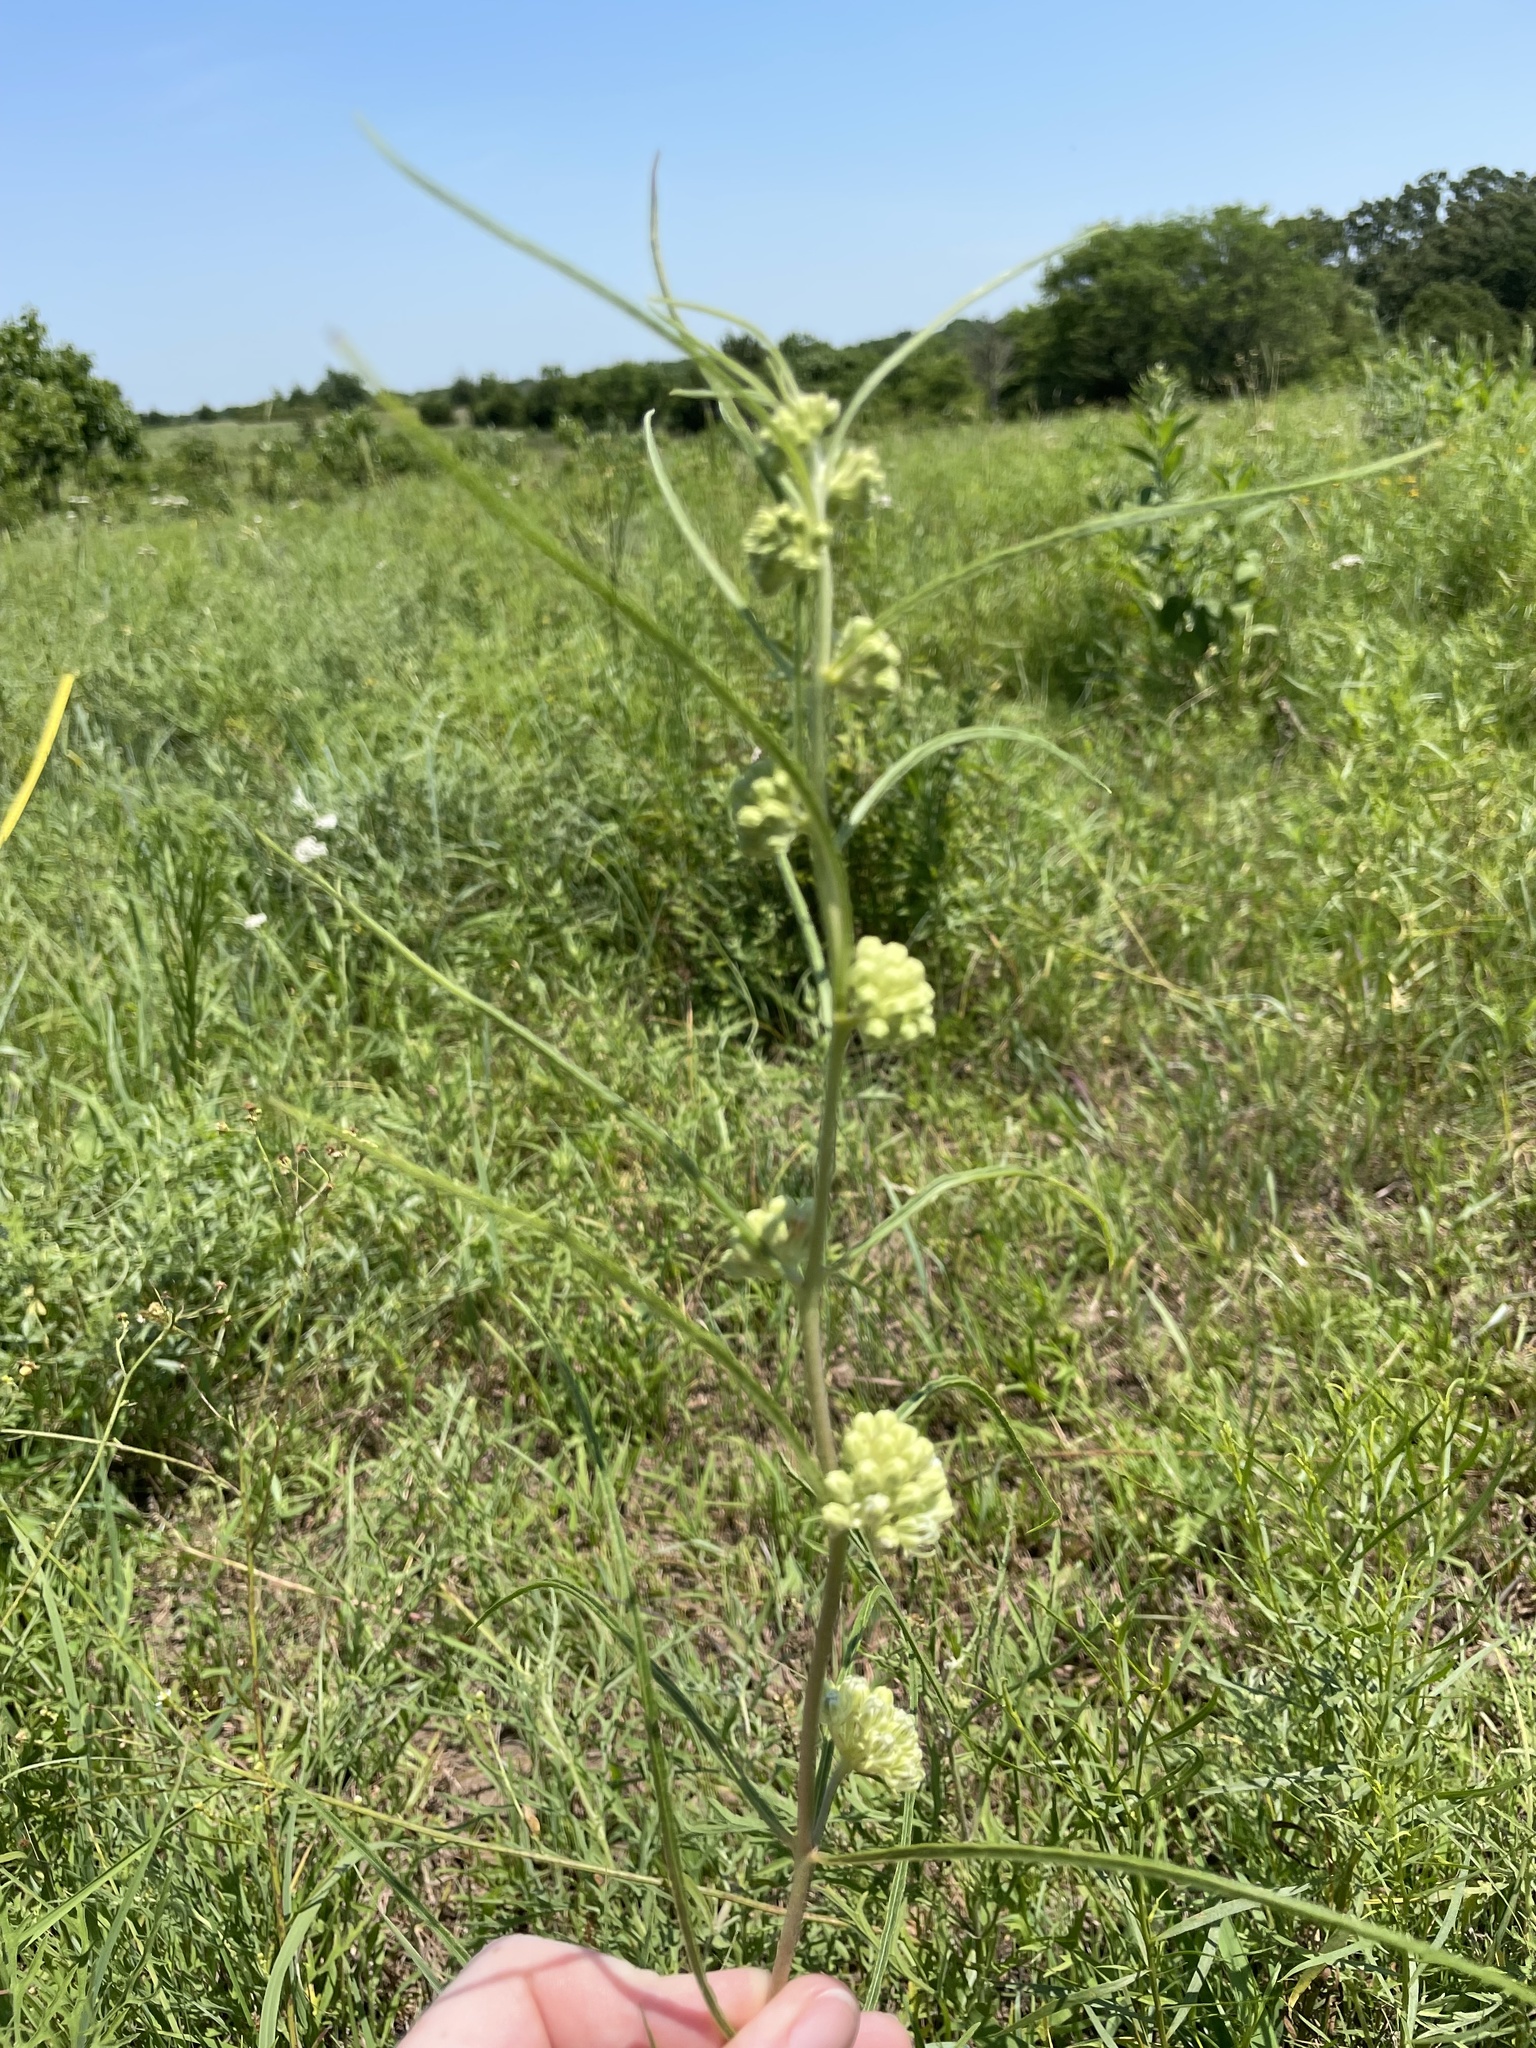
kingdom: Plantae
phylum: Tracheophyta
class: Magnoliopsida
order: Gentianales
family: Apocynaceae
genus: Asclepias
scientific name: Asclepias stenophylla
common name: Narrow-leaf milkweed
